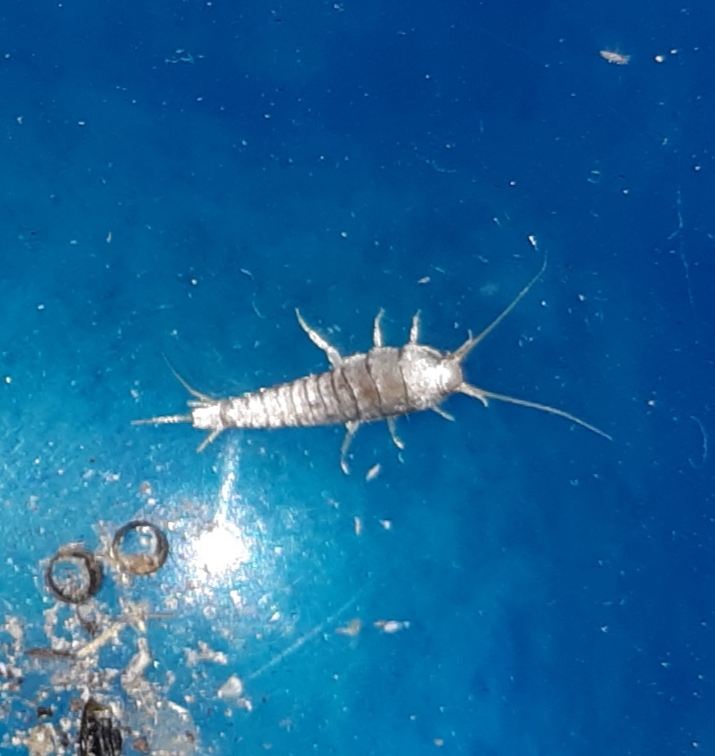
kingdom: Animalia
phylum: Arthropoda
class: Insecta
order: Zygentoma
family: Lepismatidae
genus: Lepisma
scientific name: Lepisma saccharinum
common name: Silverfish
